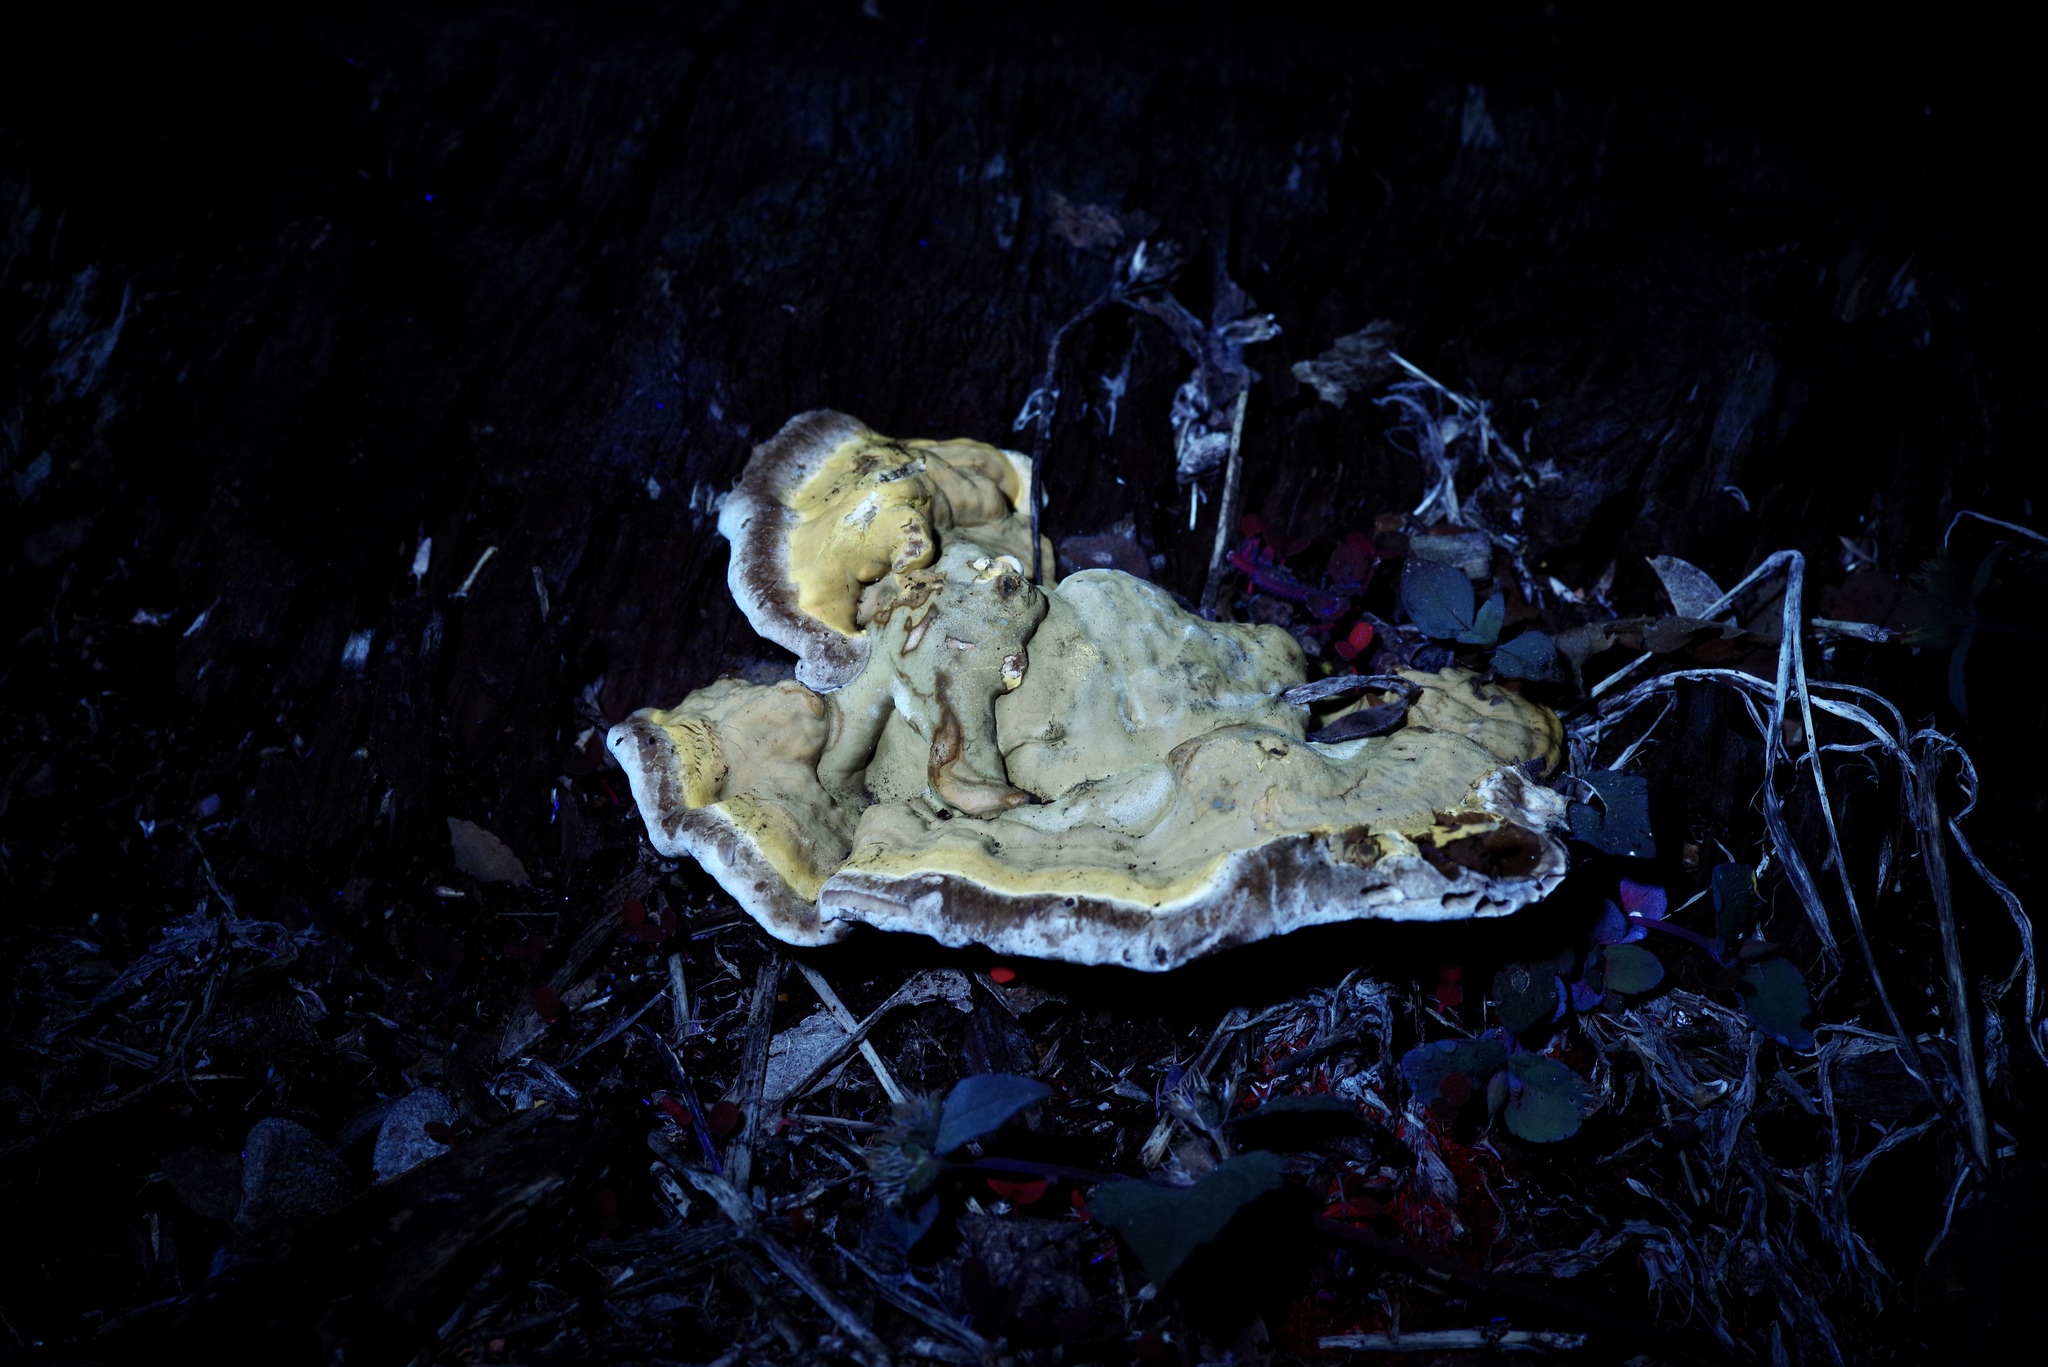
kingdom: Fungi
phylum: Basidiomycota
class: Agaricomycetes
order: Polyporales
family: Polyporaceae
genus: Ganoderma
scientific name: Ganoderma resinaceum
